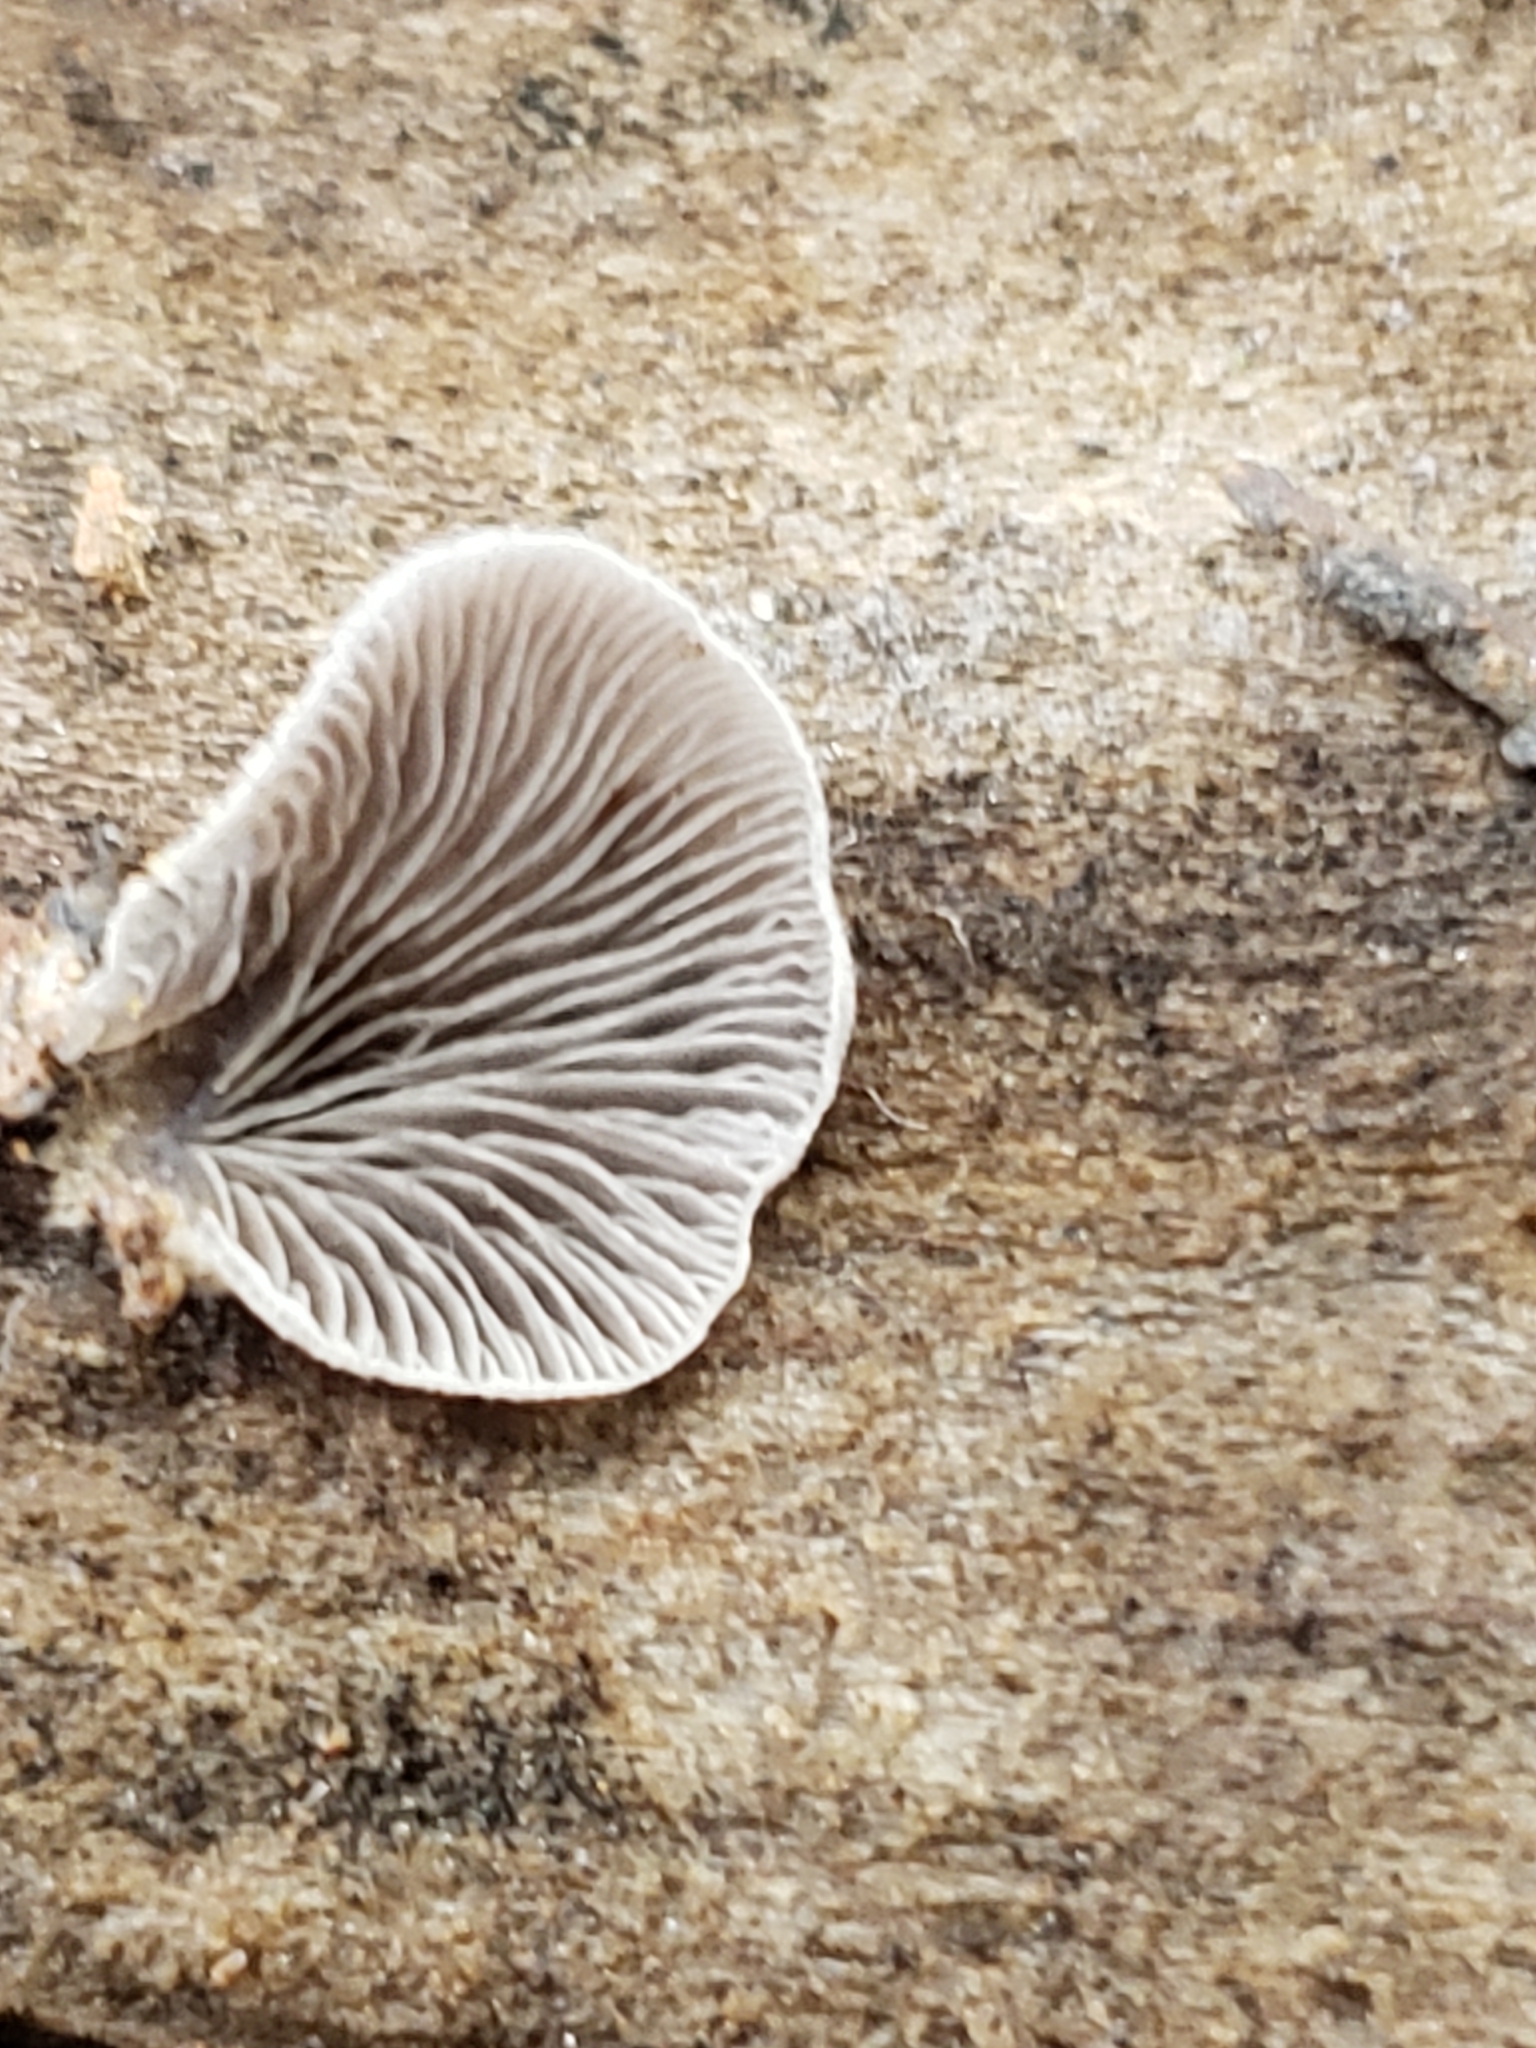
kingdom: Fungi
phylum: Basidiomycota
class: Agaricomycetes
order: Agaricales
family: Pleurotaceae
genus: Resupinatus
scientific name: Resupinatus applicatus
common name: Smoked oysterling
